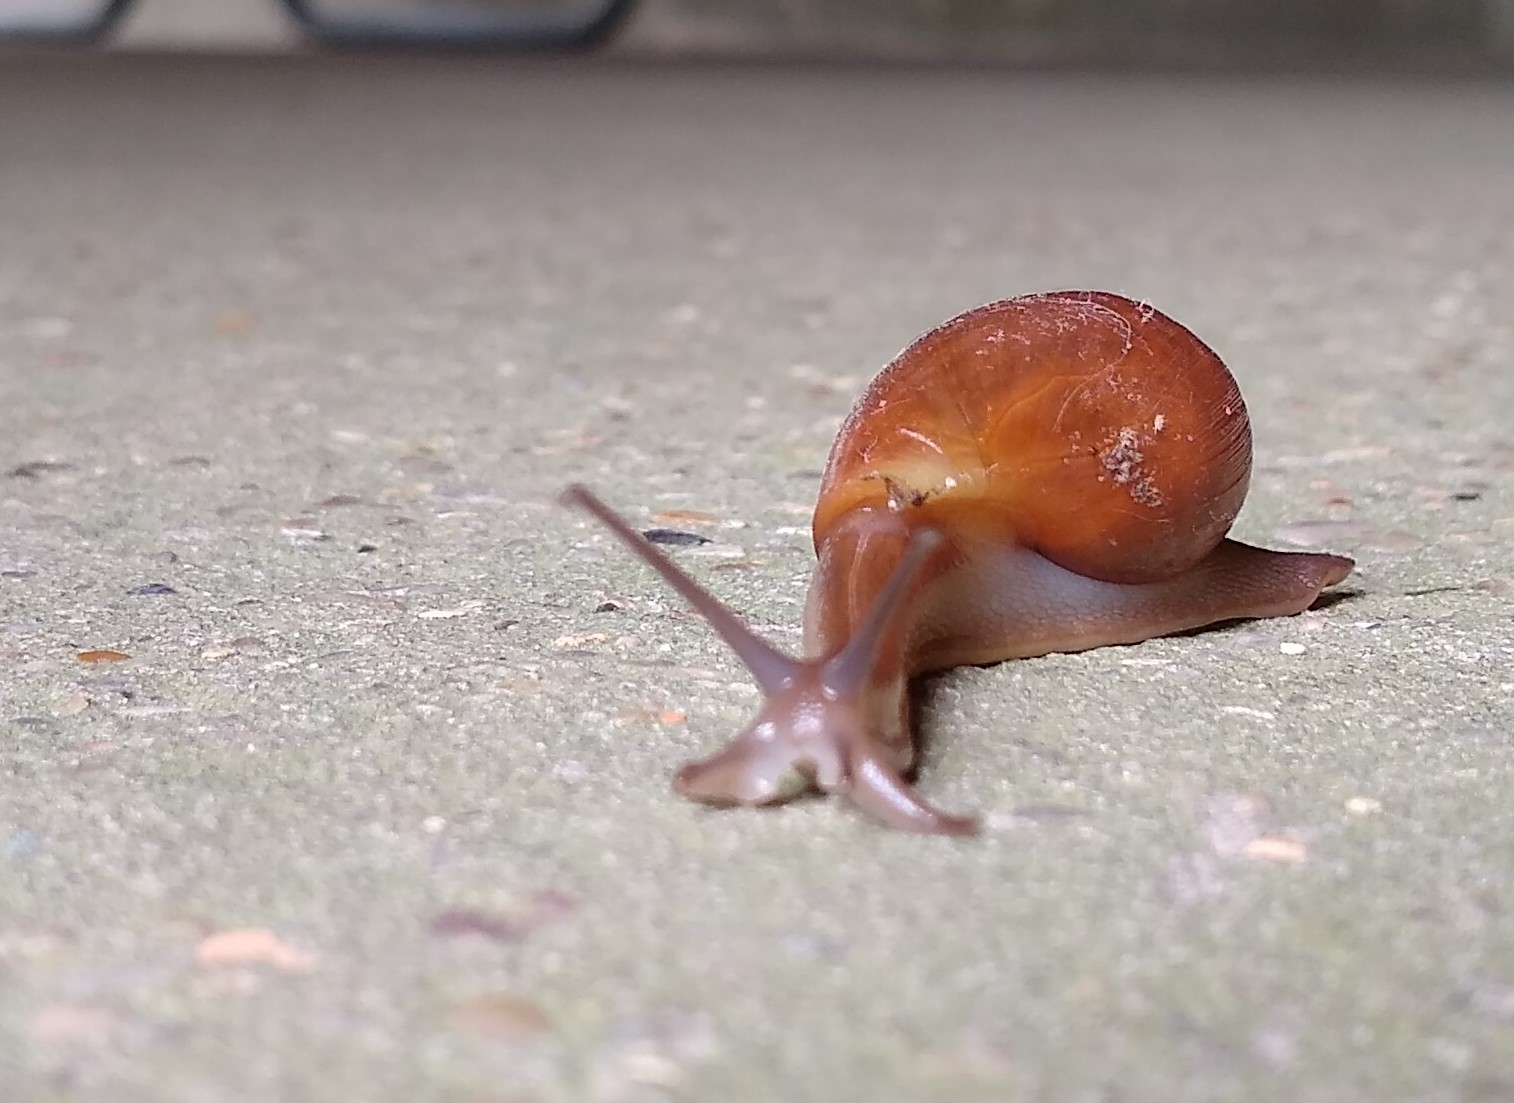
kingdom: Animalia
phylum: Mollusca
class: Gastropoda
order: Stylommatophora
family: Spiraxidae
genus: Euglandina
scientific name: Euglandina rosea
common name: Rosy wolfsnail
